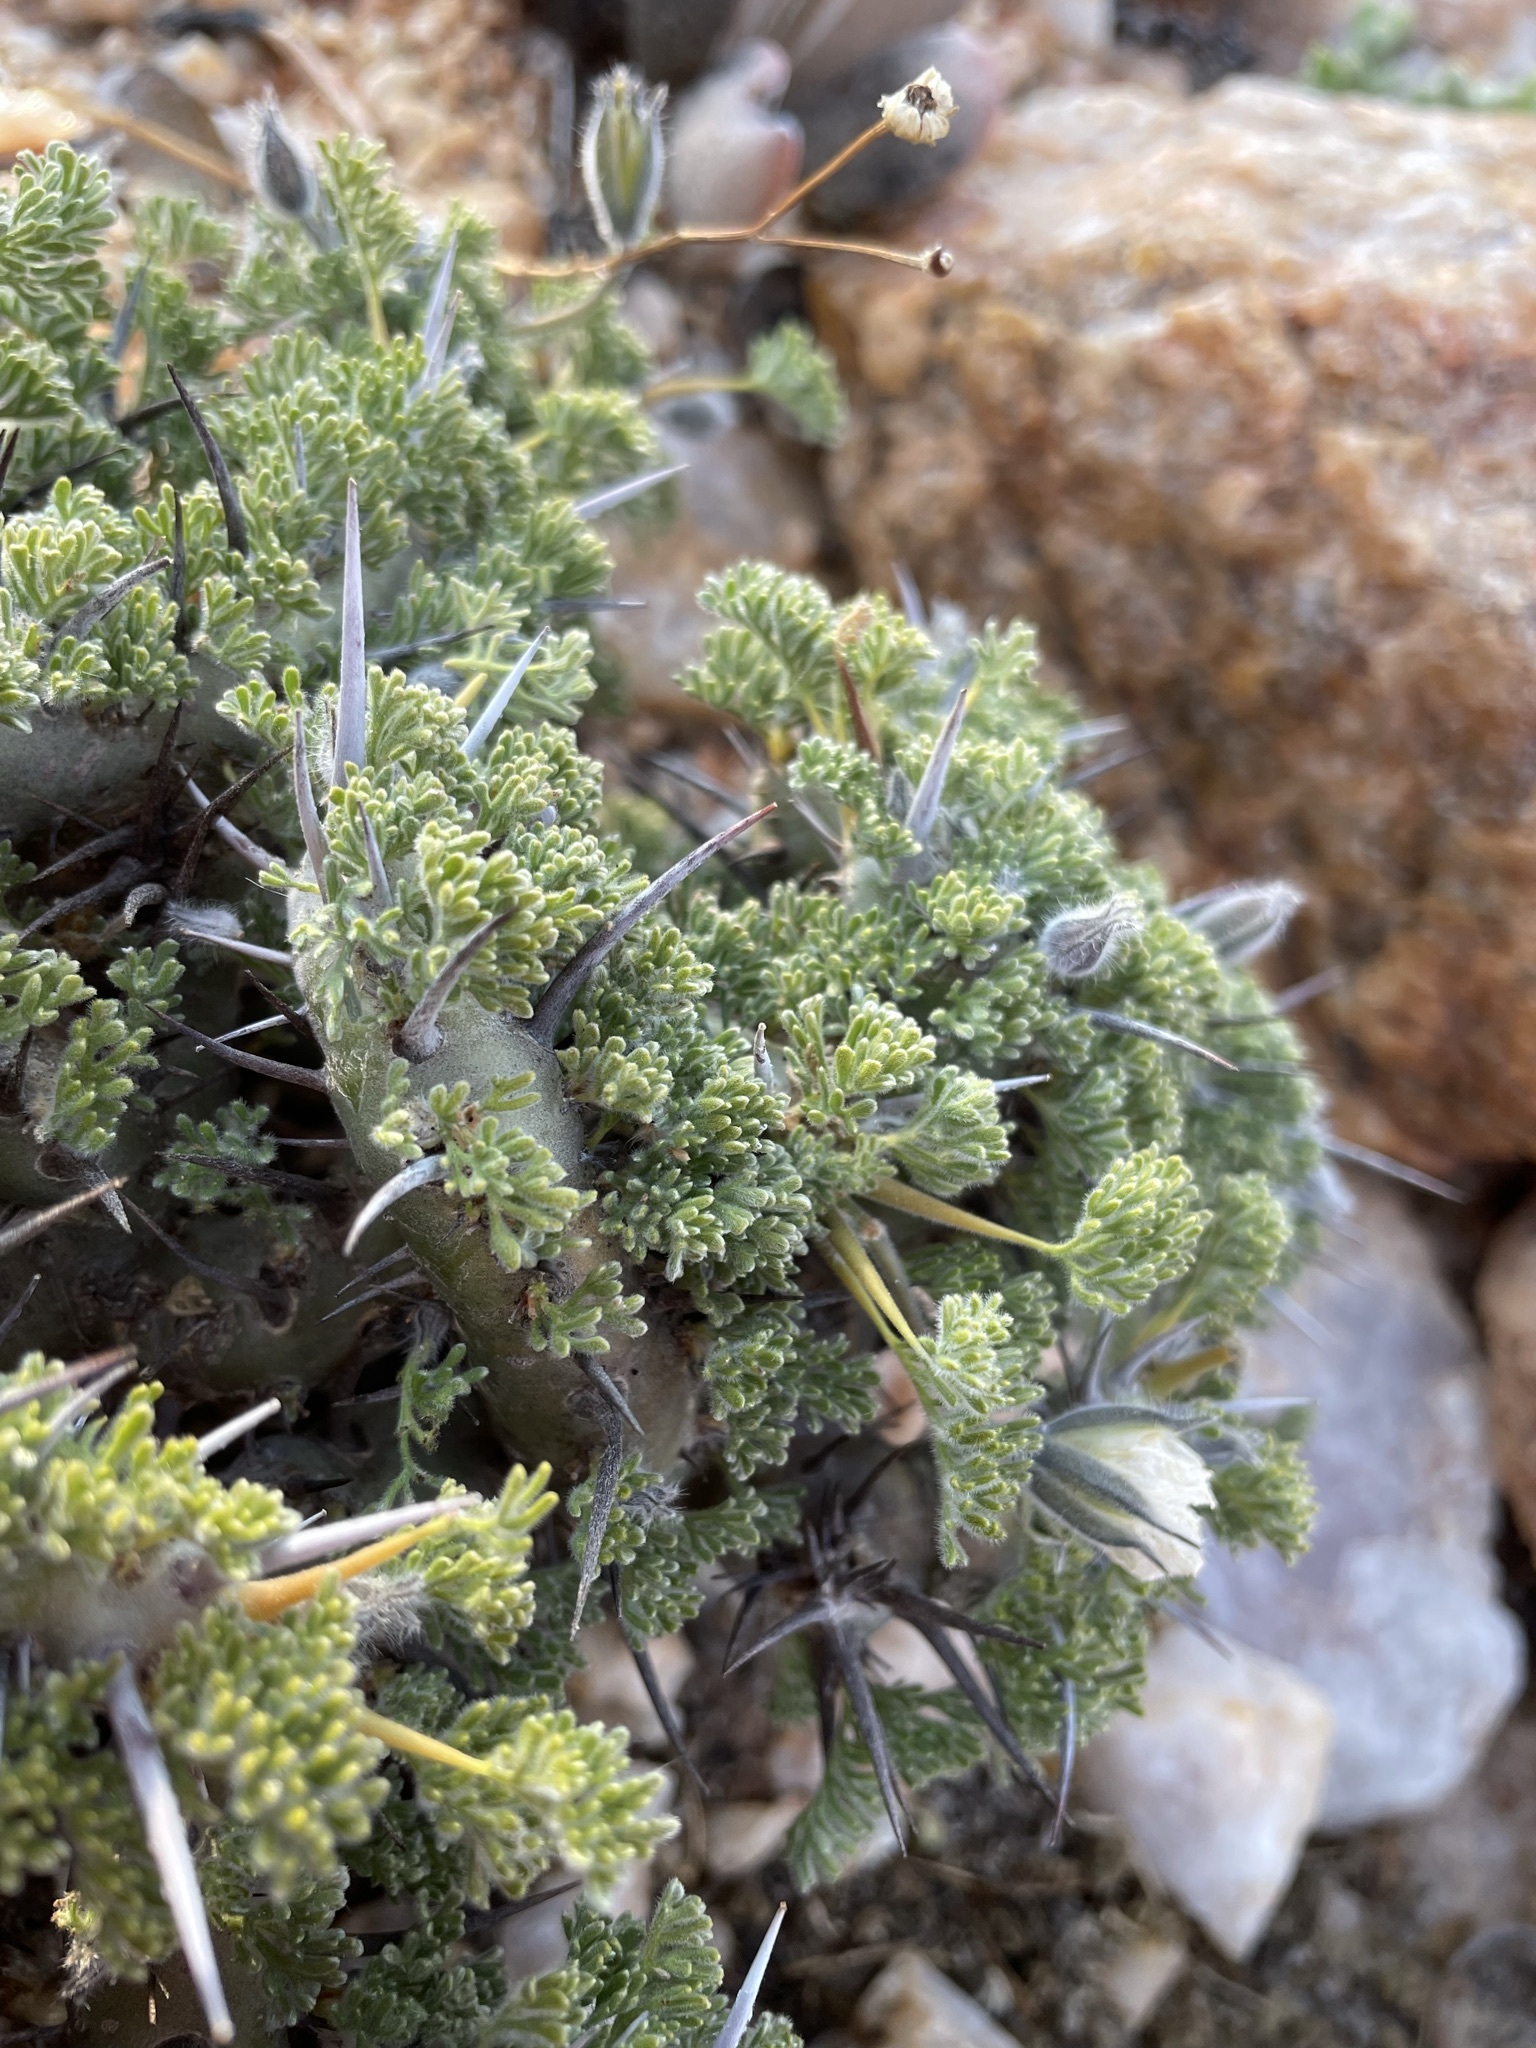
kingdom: Plantae
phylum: Tracheophyta
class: Magnoliopsida
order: Geraniales
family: Geraniaceae
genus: Monsonia
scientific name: Monsonia herrei
